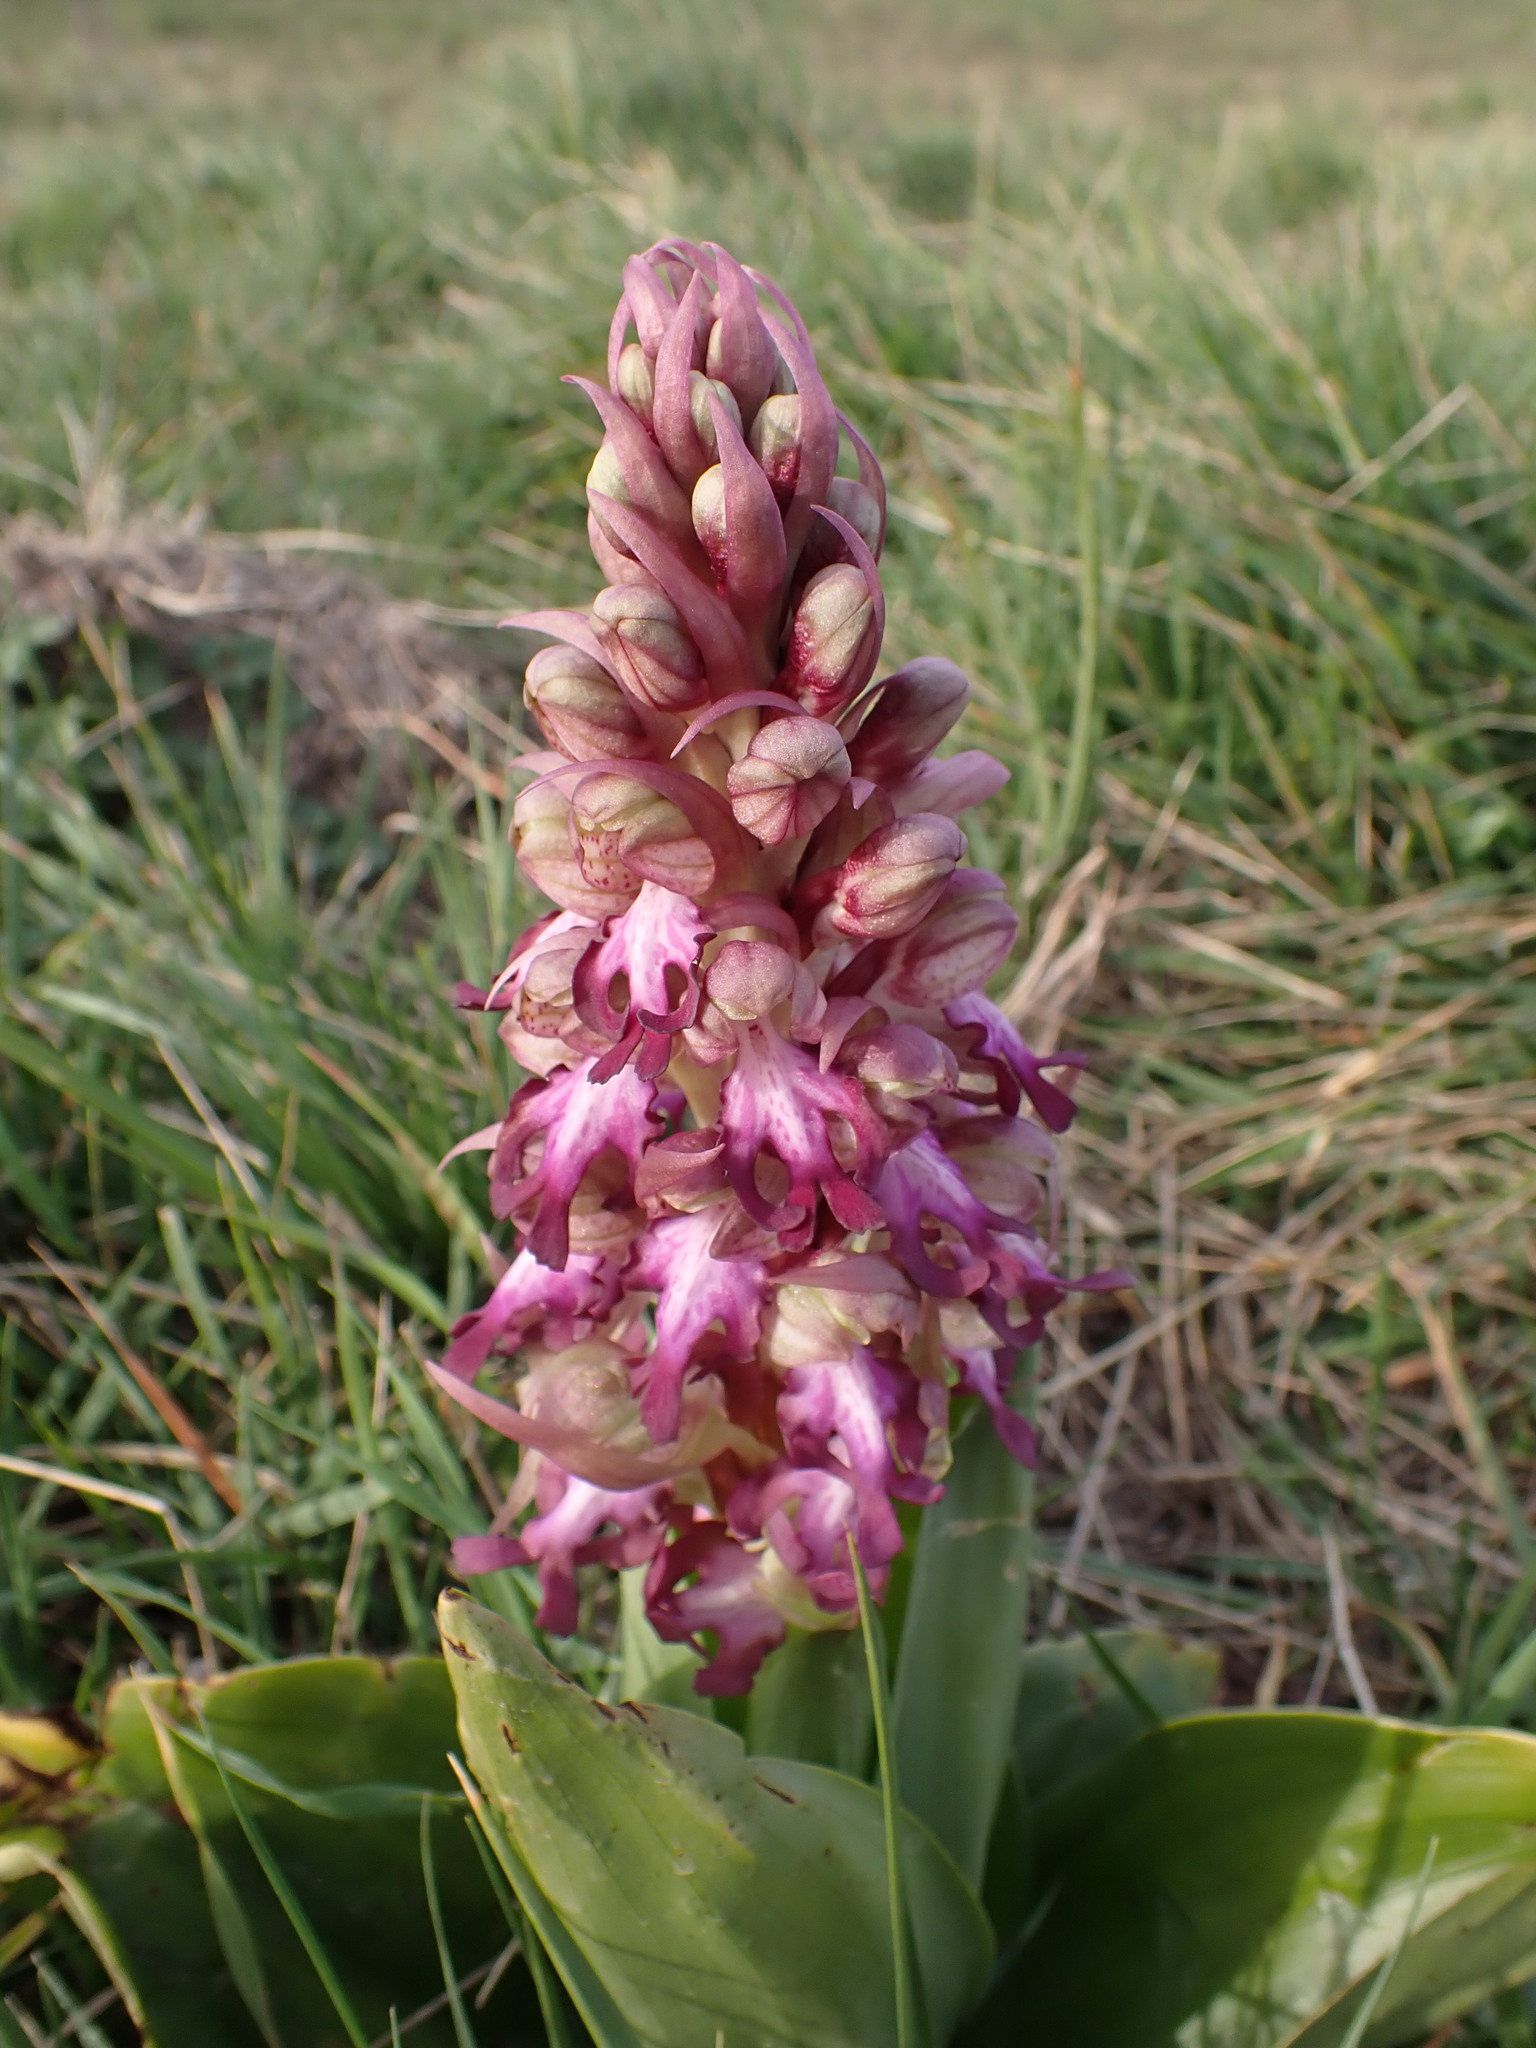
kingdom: Plantae
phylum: Tracheophyta
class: Liliopsida
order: Asparagales
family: Orchidaceae
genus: Himantoglossum
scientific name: Himantoglossum robertianum
